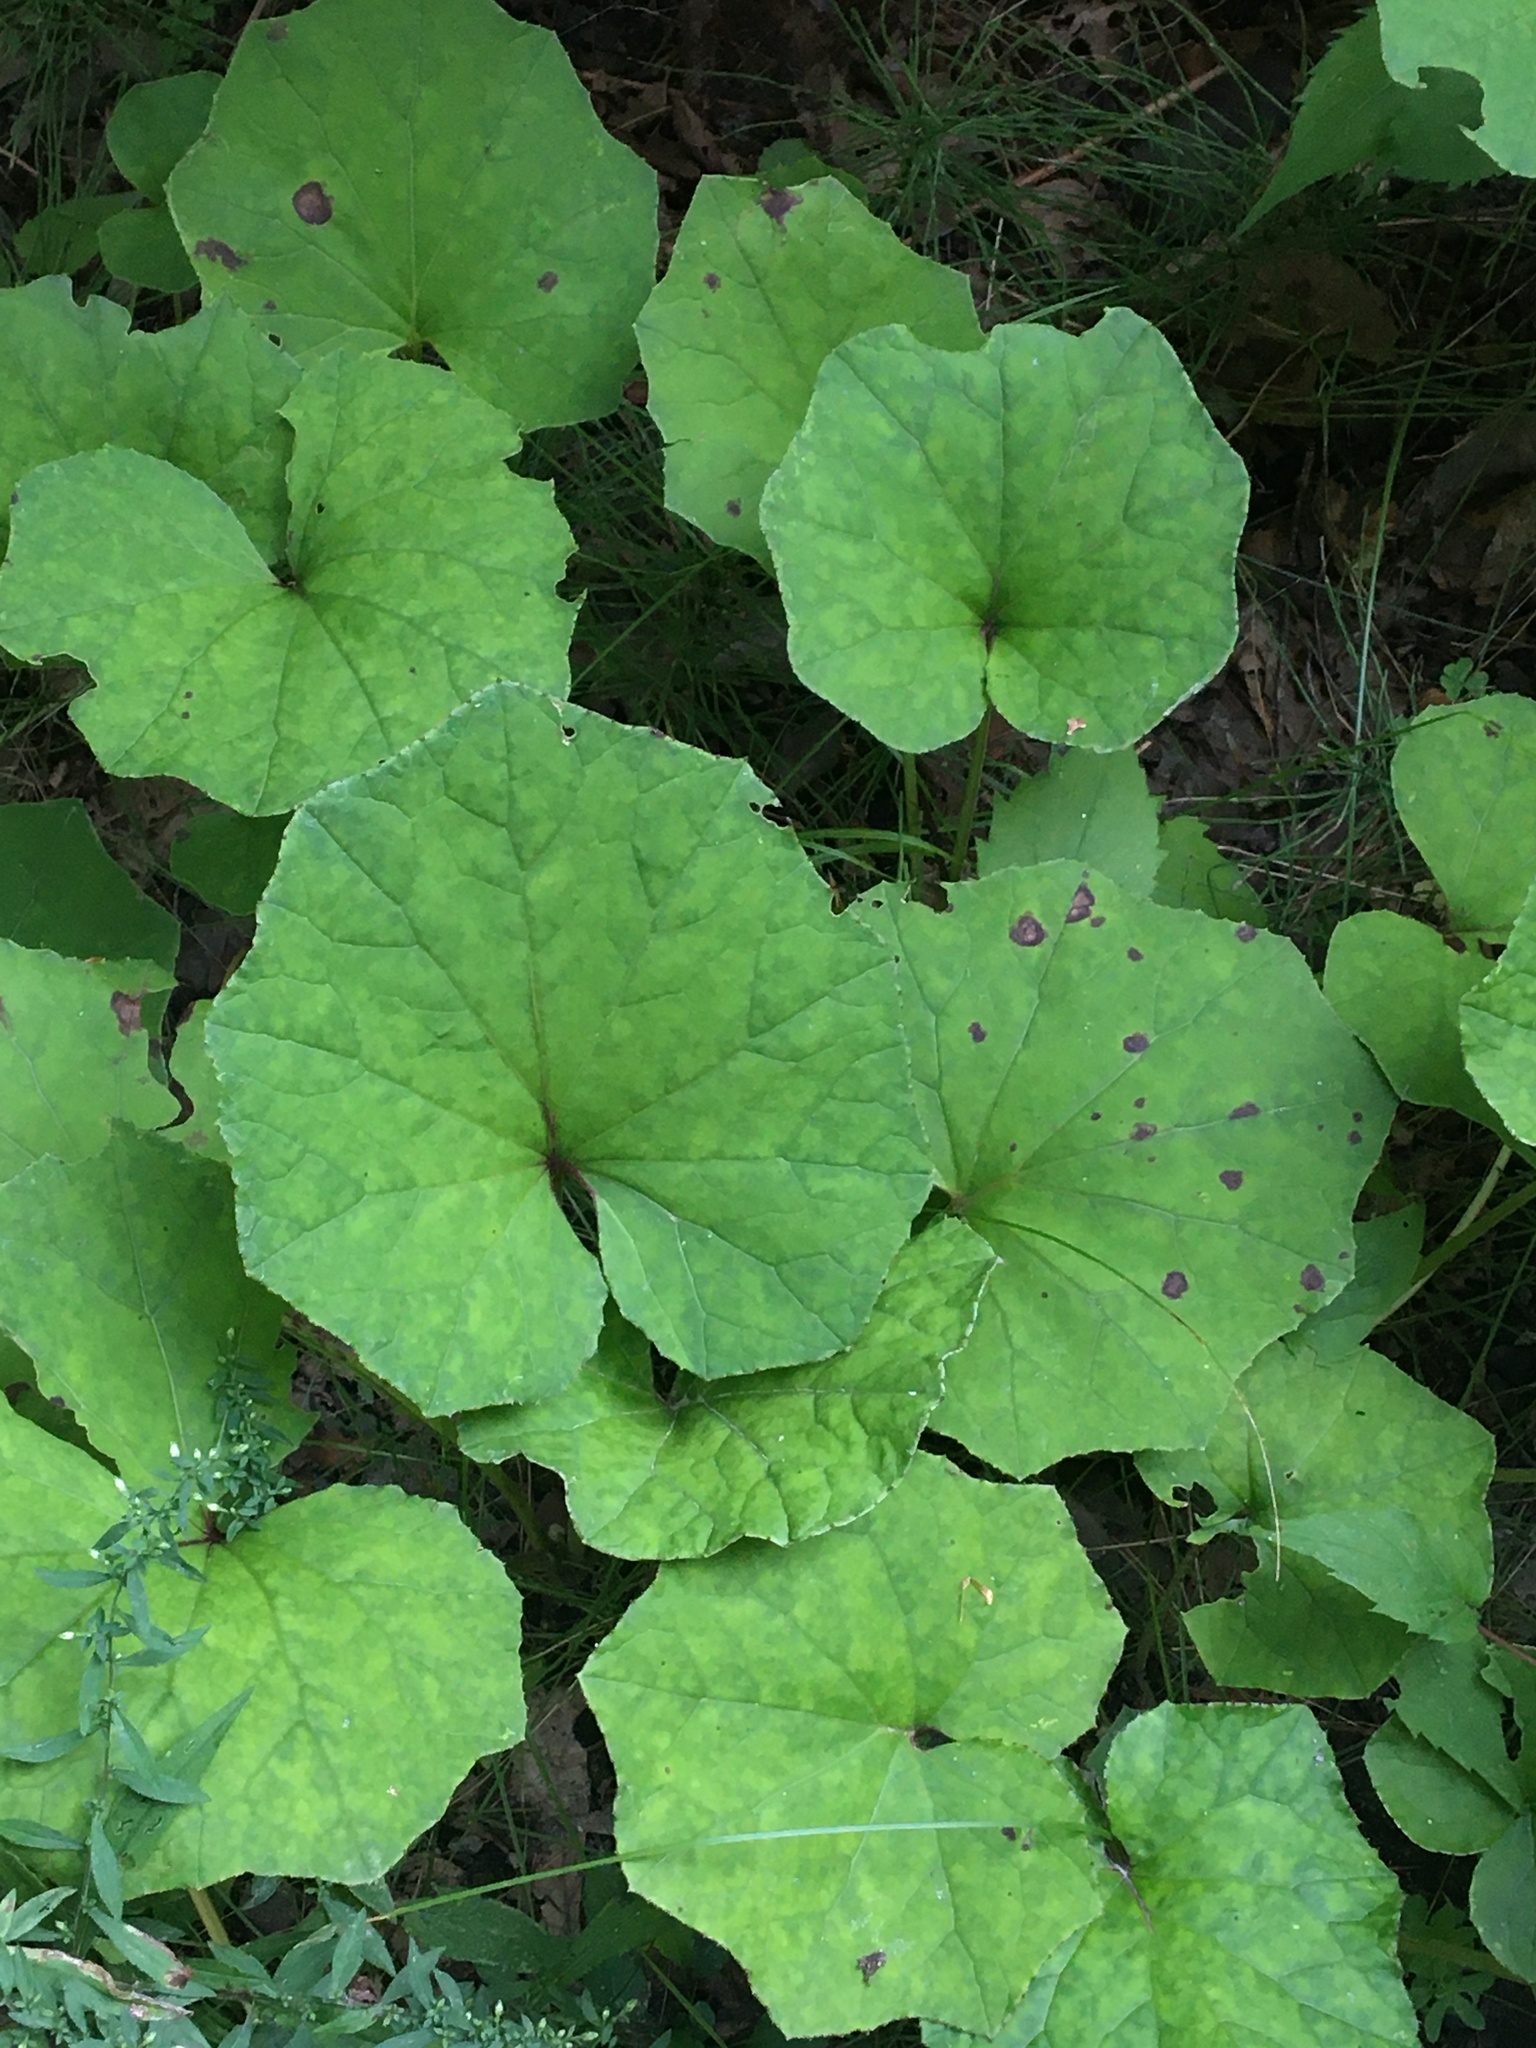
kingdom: Plantae
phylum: Tracheophyta
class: Magnoliopsida
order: Asterales
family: Asteraceae
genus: Tussilago
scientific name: Tussilago farfara
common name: Coltsfoot
